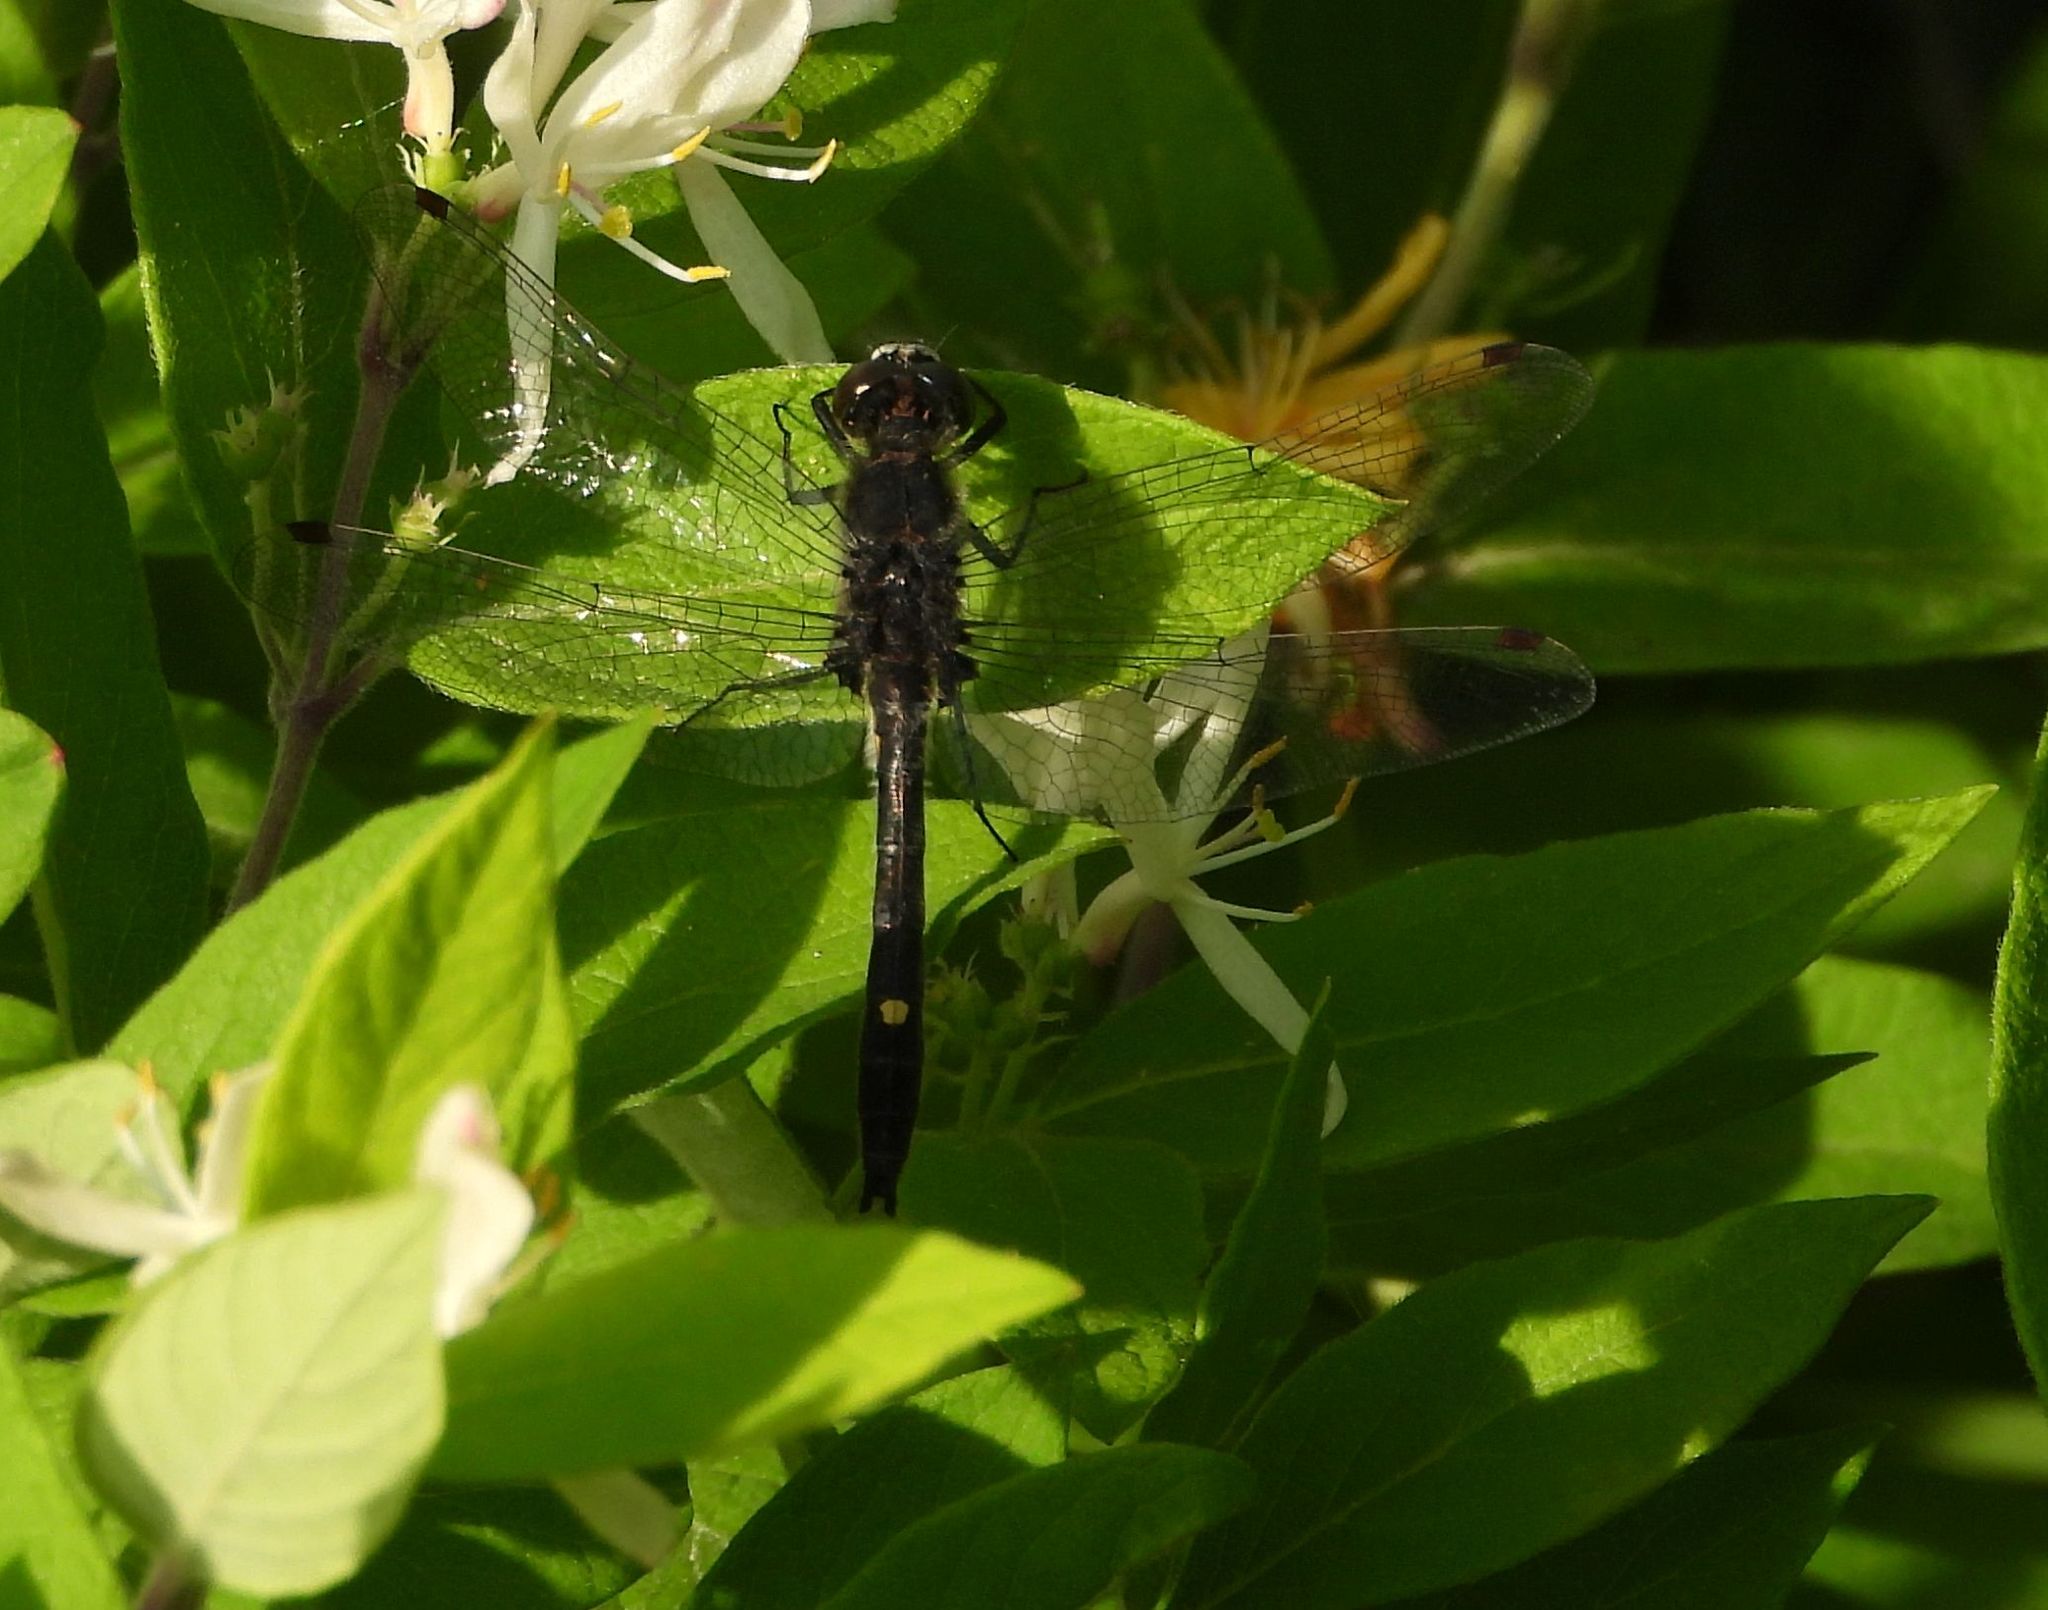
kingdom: Animalia
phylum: Arthropoda
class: Insecta
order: Odonata
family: Libellulidae
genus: Leucorrhinia
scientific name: Leucorrhinia intacta
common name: Dot-tailed whiteface
